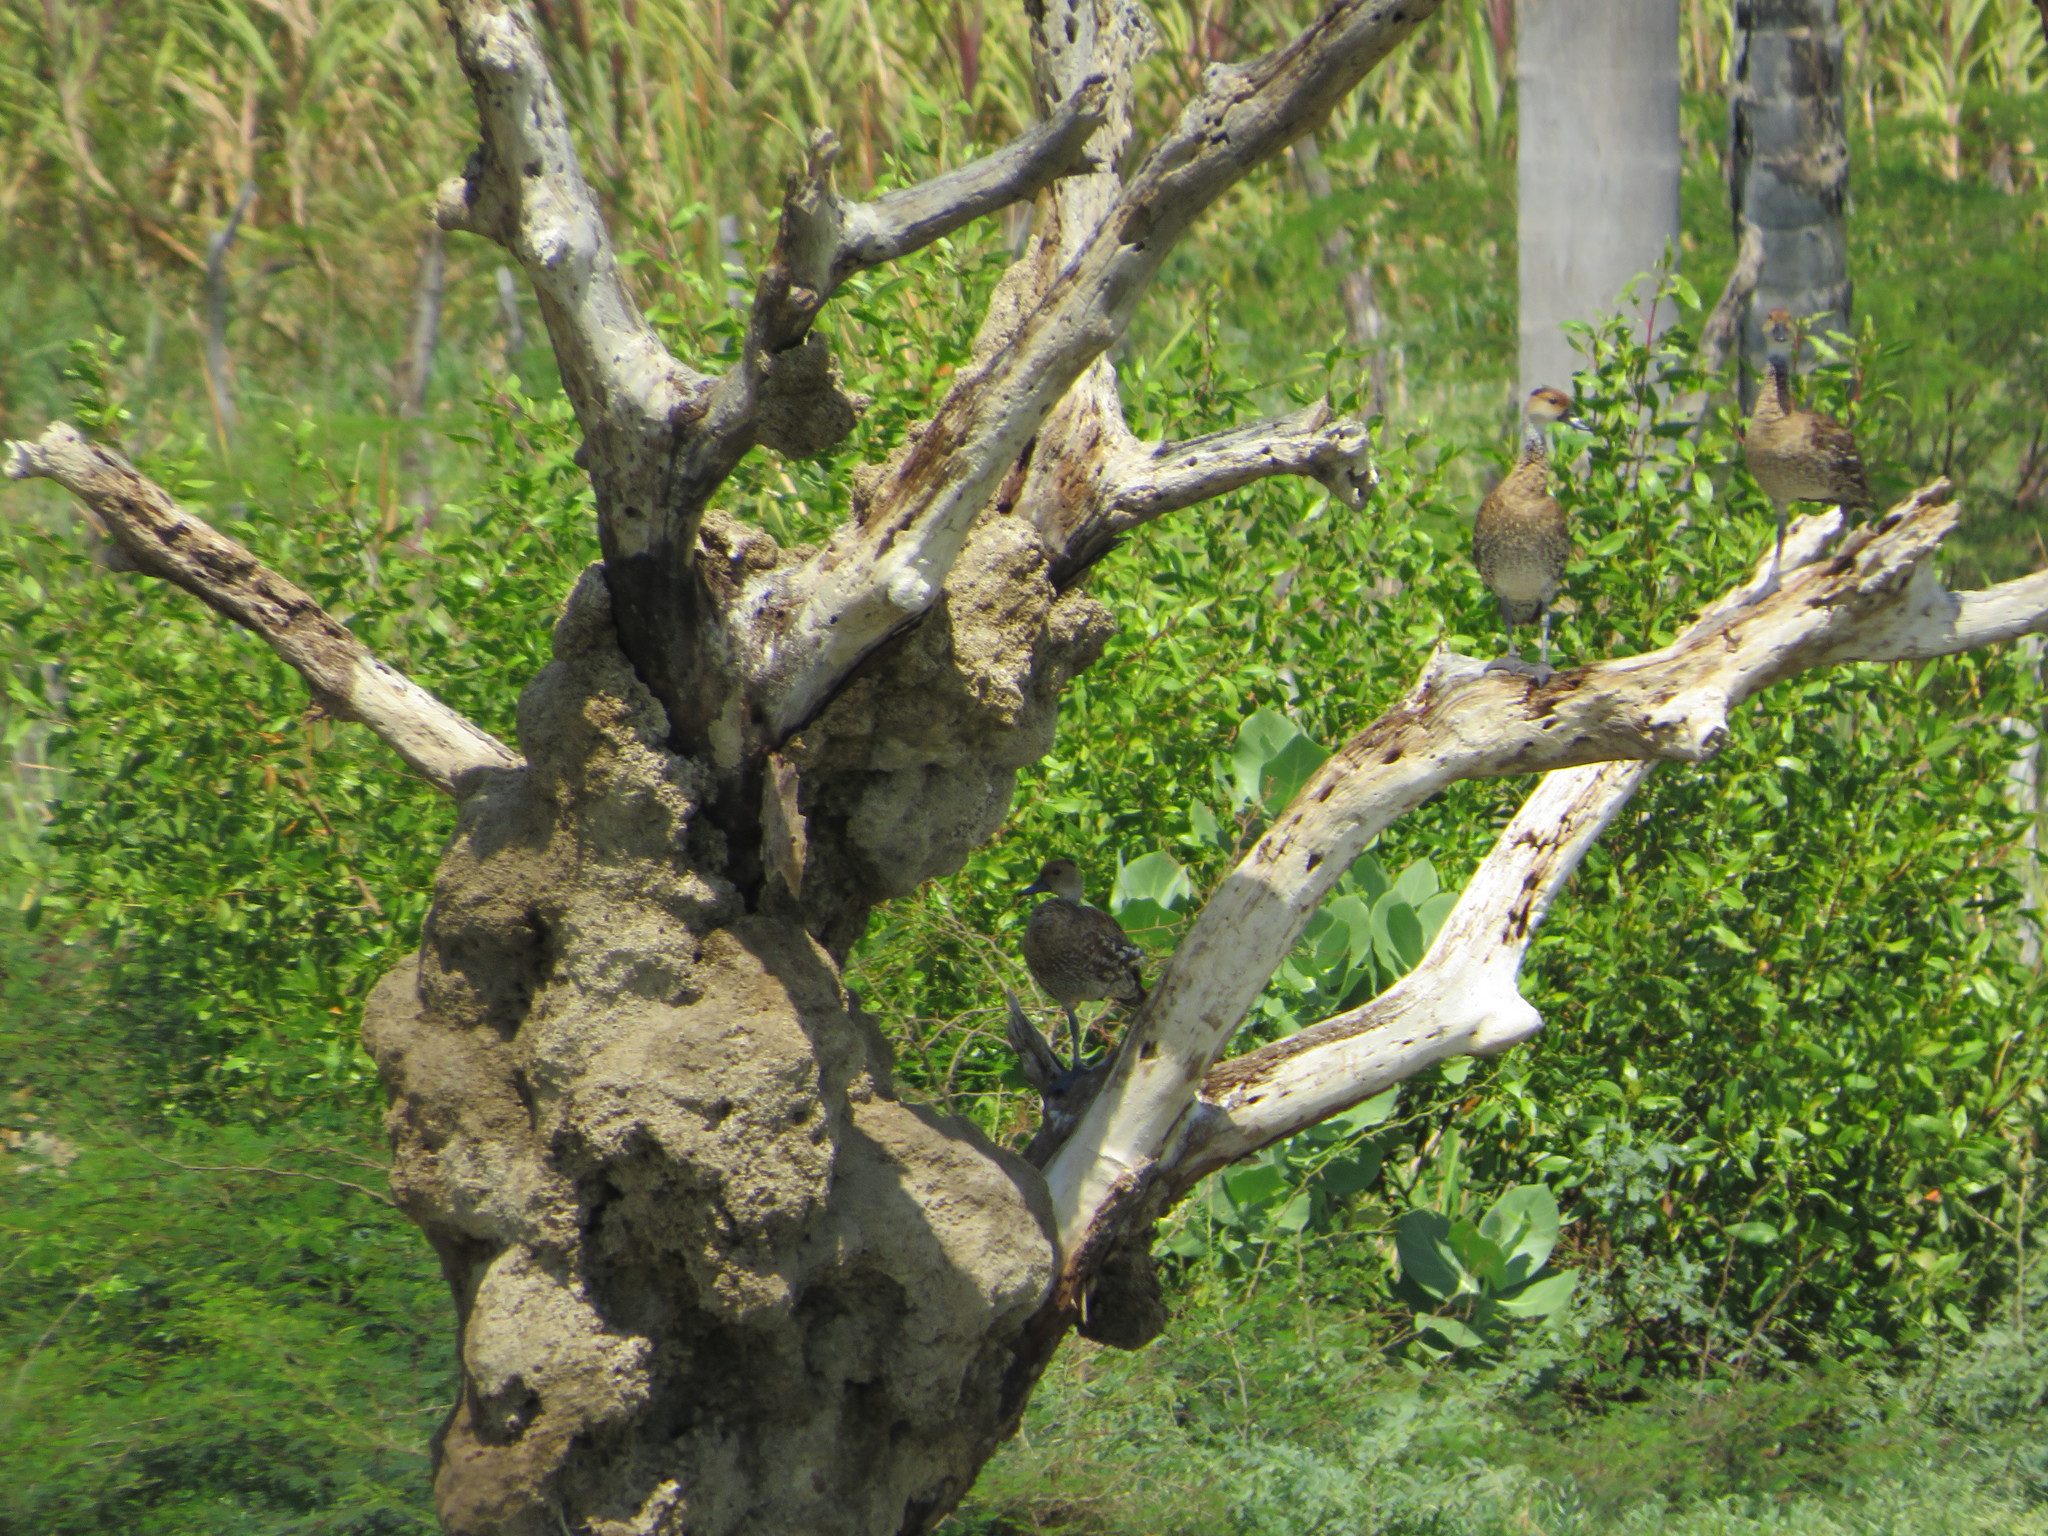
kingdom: Animalia
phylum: Chordata
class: Aves
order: Anseriformes
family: Anatidae
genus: Dendrocygna
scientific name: Dendrocygna arborea
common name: West indian whistling duck
